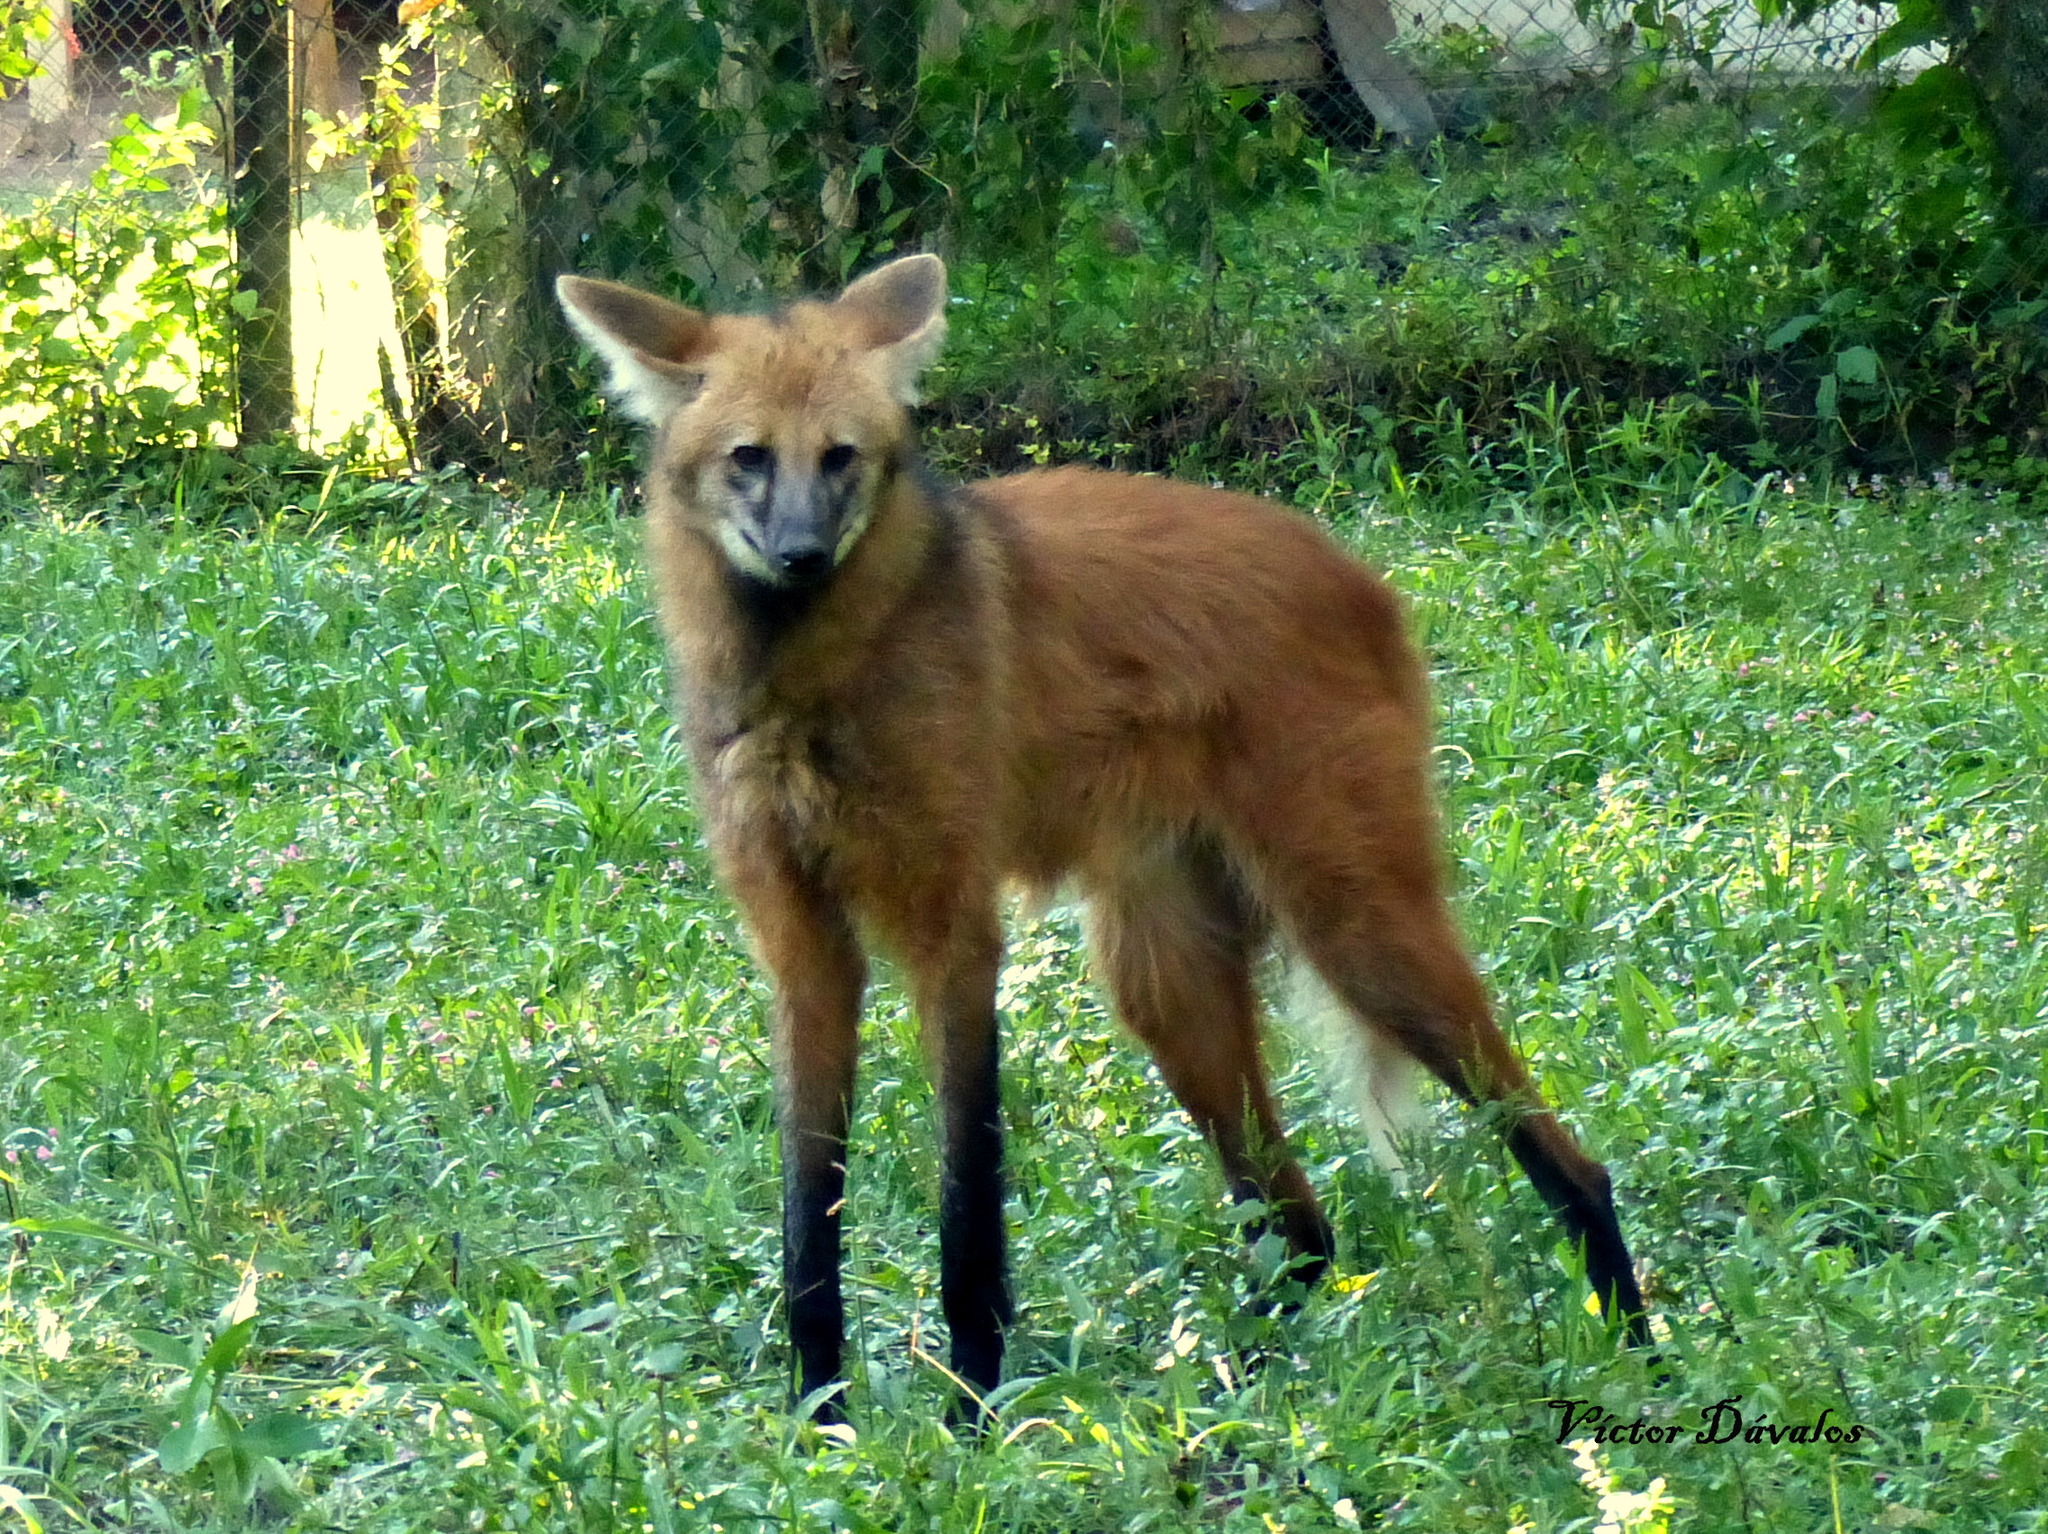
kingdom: Animalia
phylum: Chordata
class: Mammalia
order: Carnivora
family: Canidae
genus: Chrysocyon
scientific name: Chrysocyon brachyurus
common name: Maned wolf
